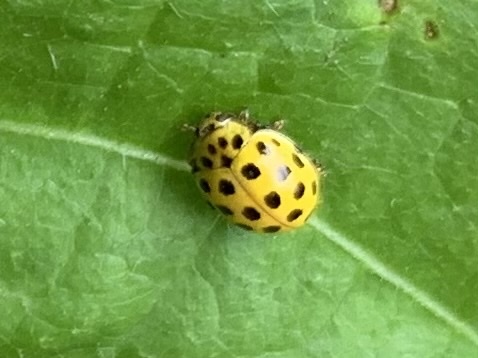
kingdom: Animalia
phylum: Arthropoda
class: Insecta
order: Coleoptera
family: Coccinellidae
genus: Psyllobora
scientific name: Psyllobora vigintiduopunctata
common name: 22-spot ladybird
